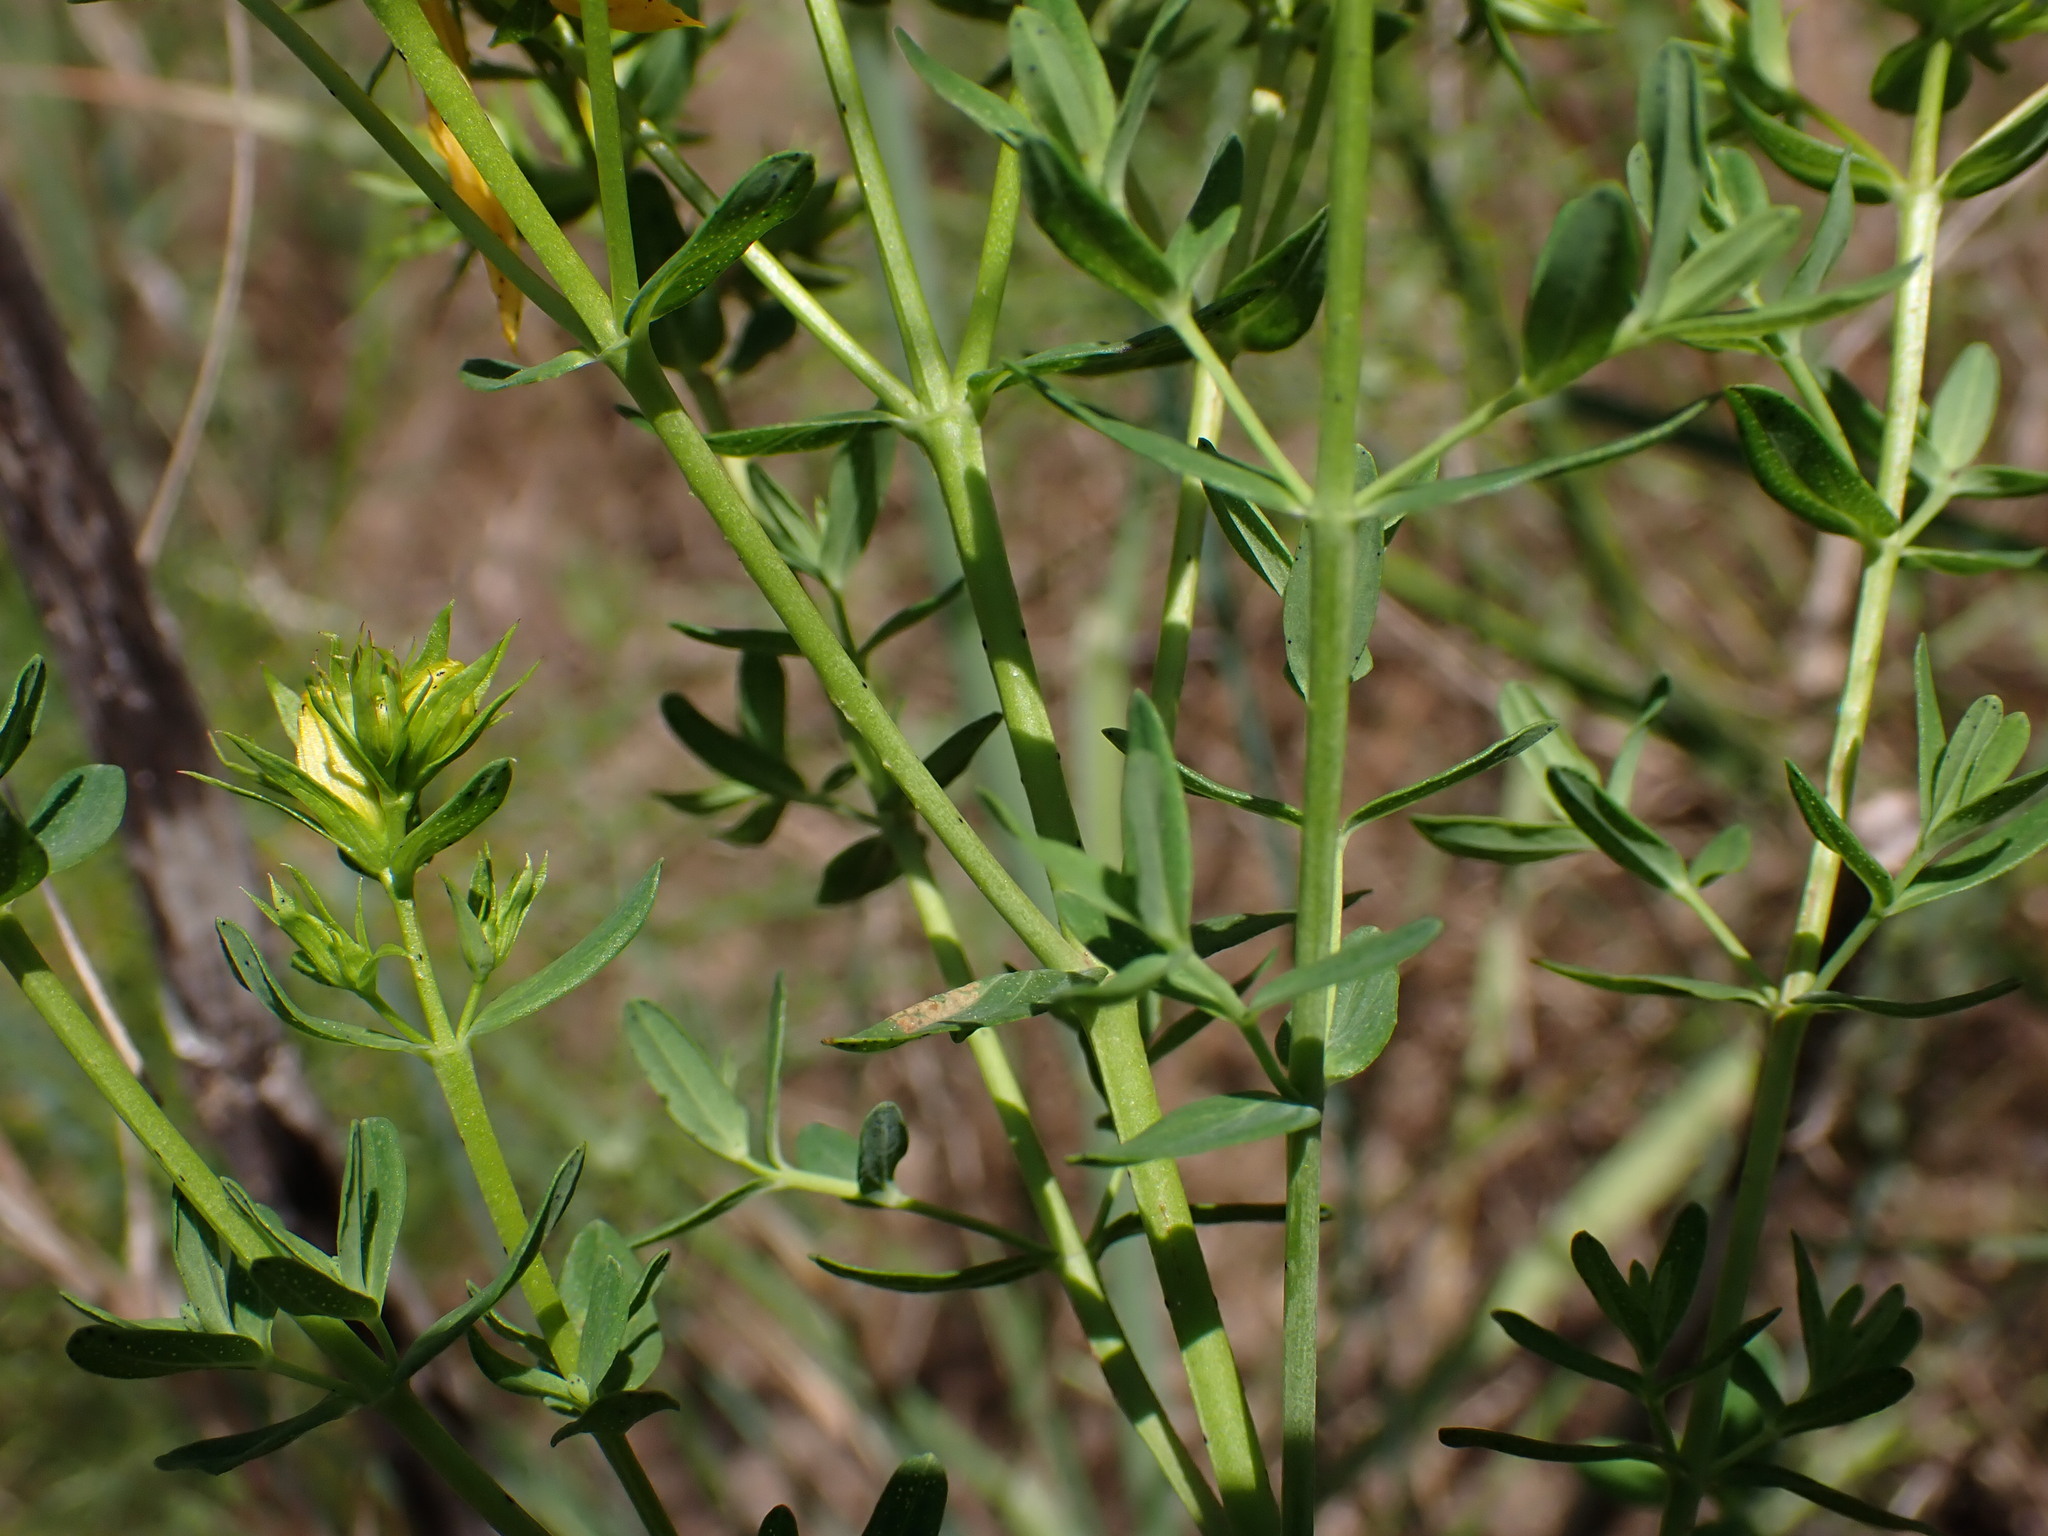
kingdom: Plantae
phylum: Tracheophyta
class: Magnoliopsida
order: Malpighiales
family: Hypericaceae
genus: Hypericum
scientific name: Hypericum perforatum
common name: Common st. johnswort
